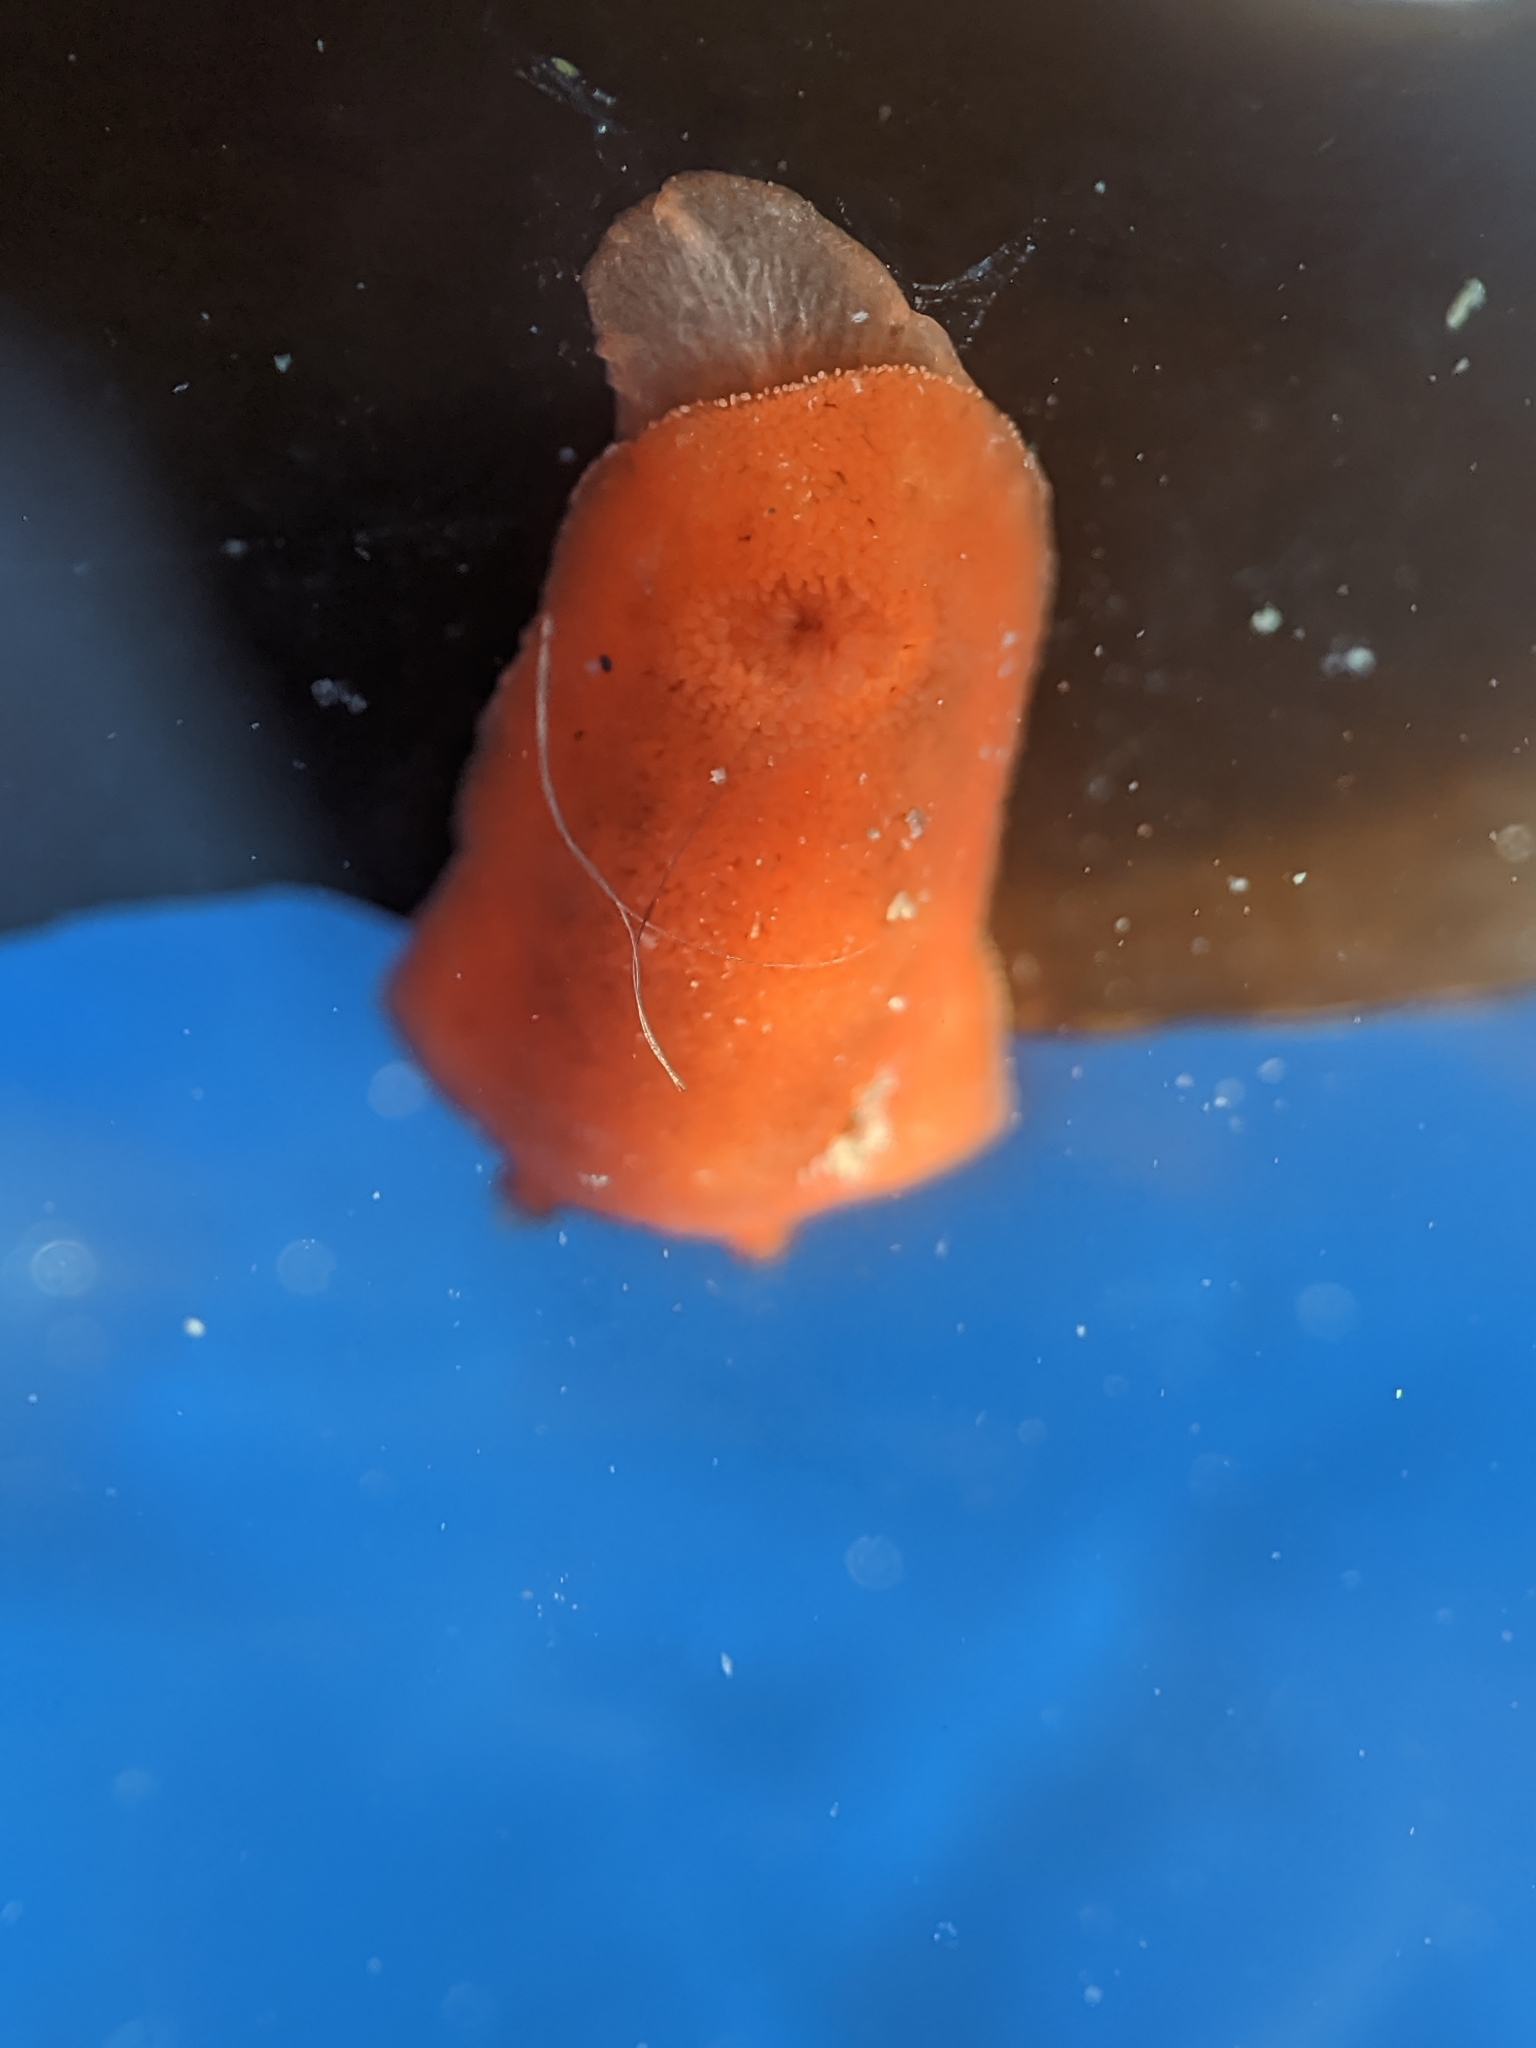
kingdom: Animalia
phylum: Mollusca
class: Gastropoda
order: Nudibranchia
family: Discodorididae
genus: Rostanga
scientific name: Rostanga pulchra
